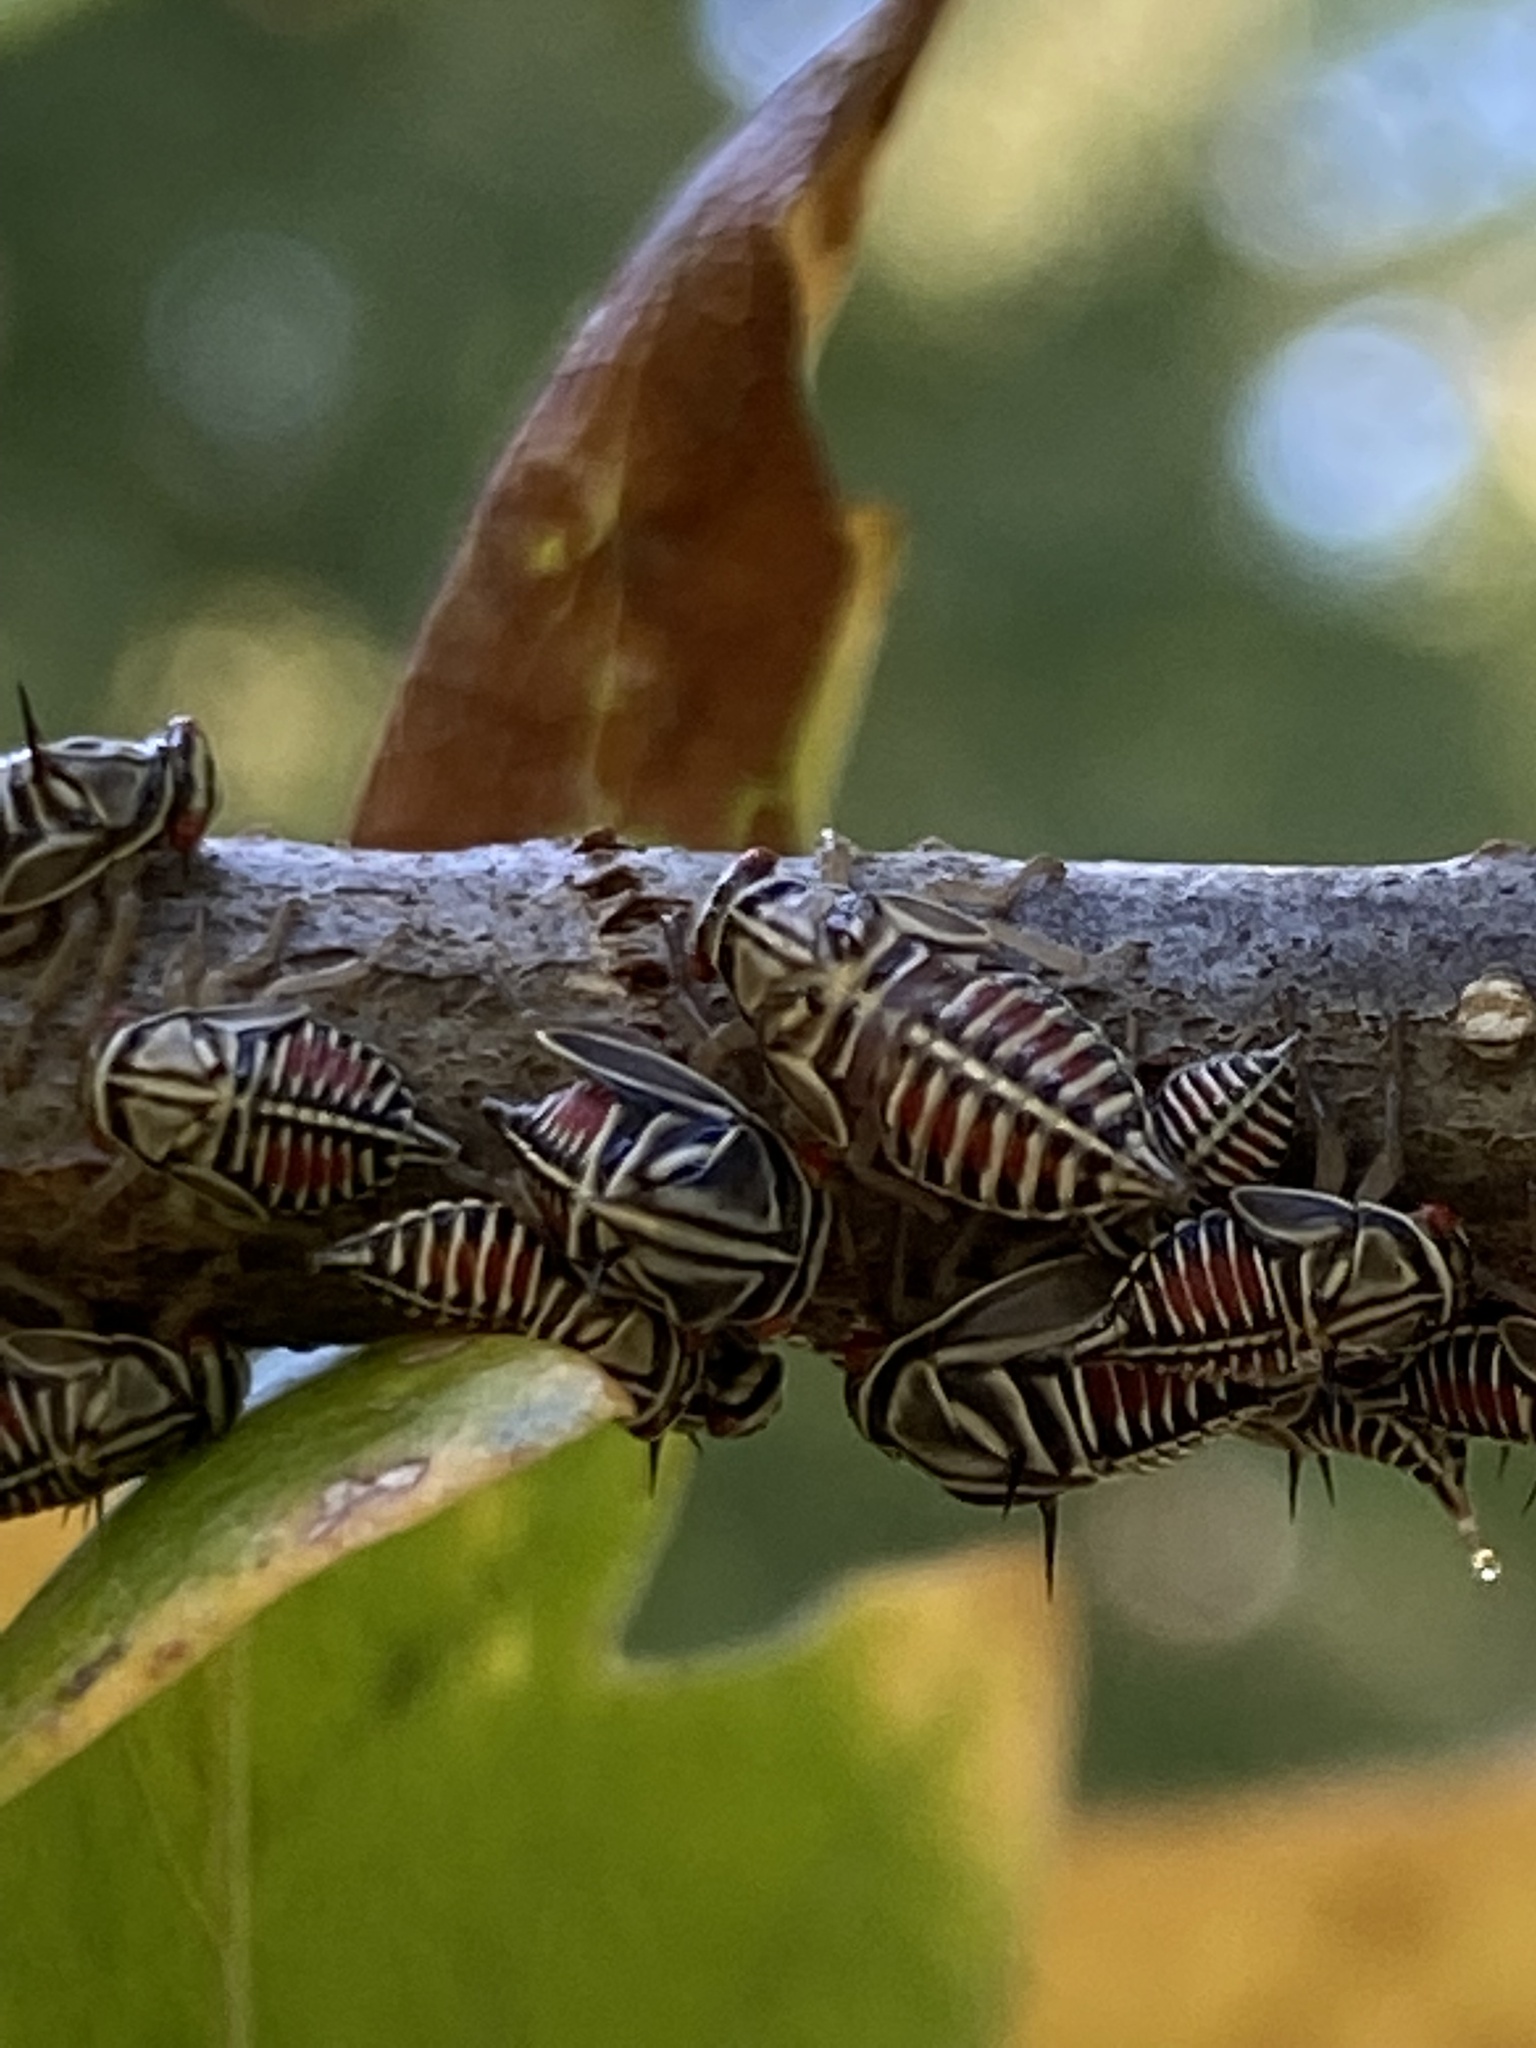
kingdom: Animalia
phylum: Arthropoda
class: Insecta
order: Hemiptera
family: Membracidae
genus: Platycotis
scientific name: Platycotis vittatus
